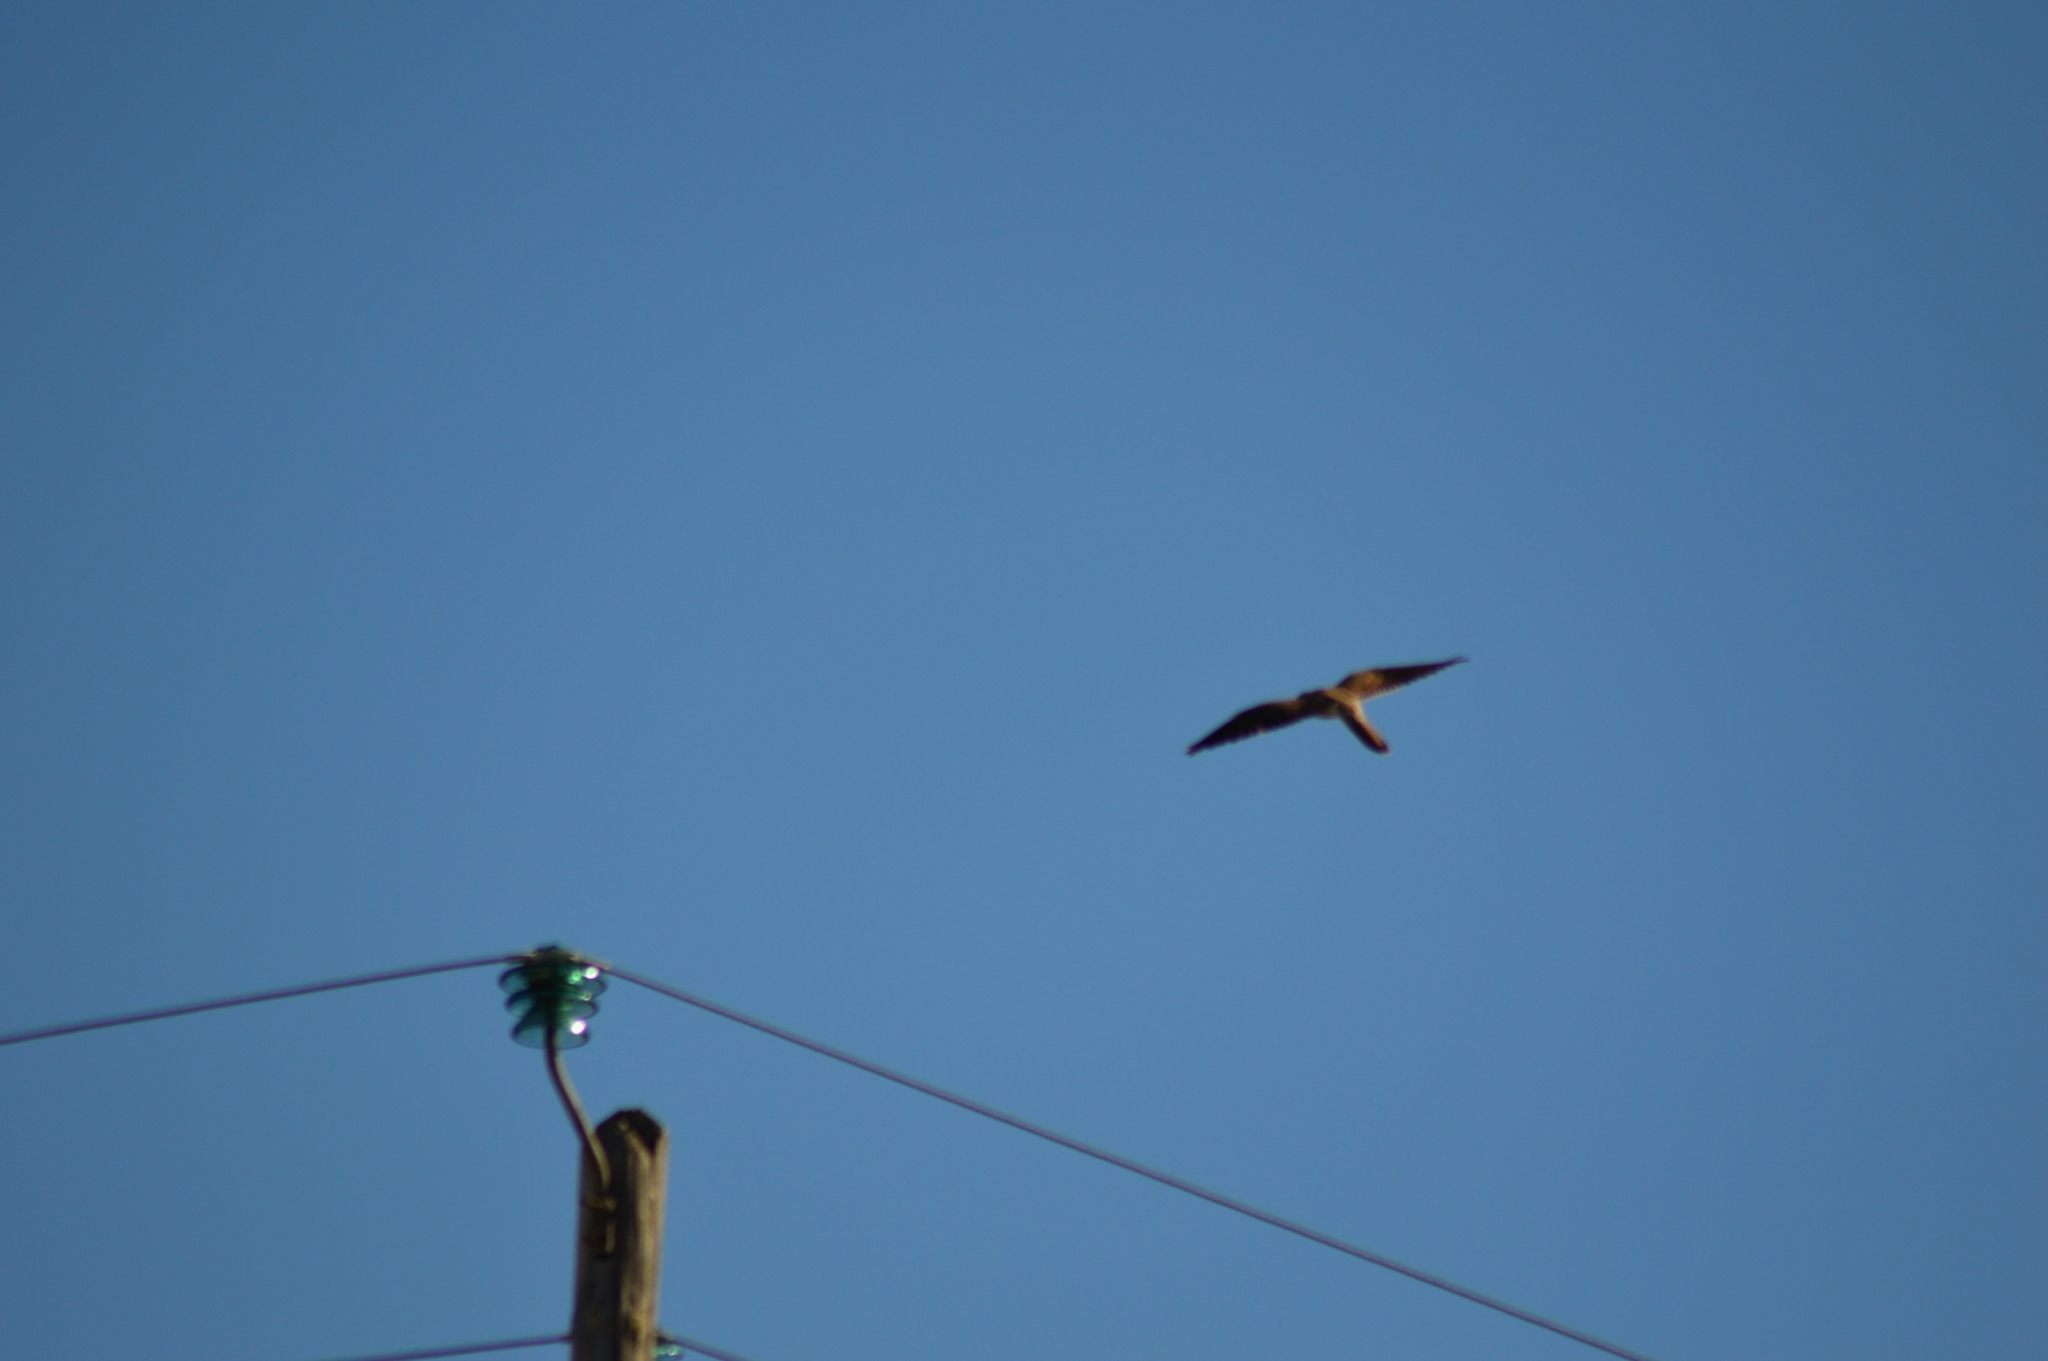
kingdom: Animalia
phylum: Chordata
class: Aves
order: Falconiformes
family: Falconidae
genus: Falco
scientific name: Falco tinnunculus
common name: Common kestrel
